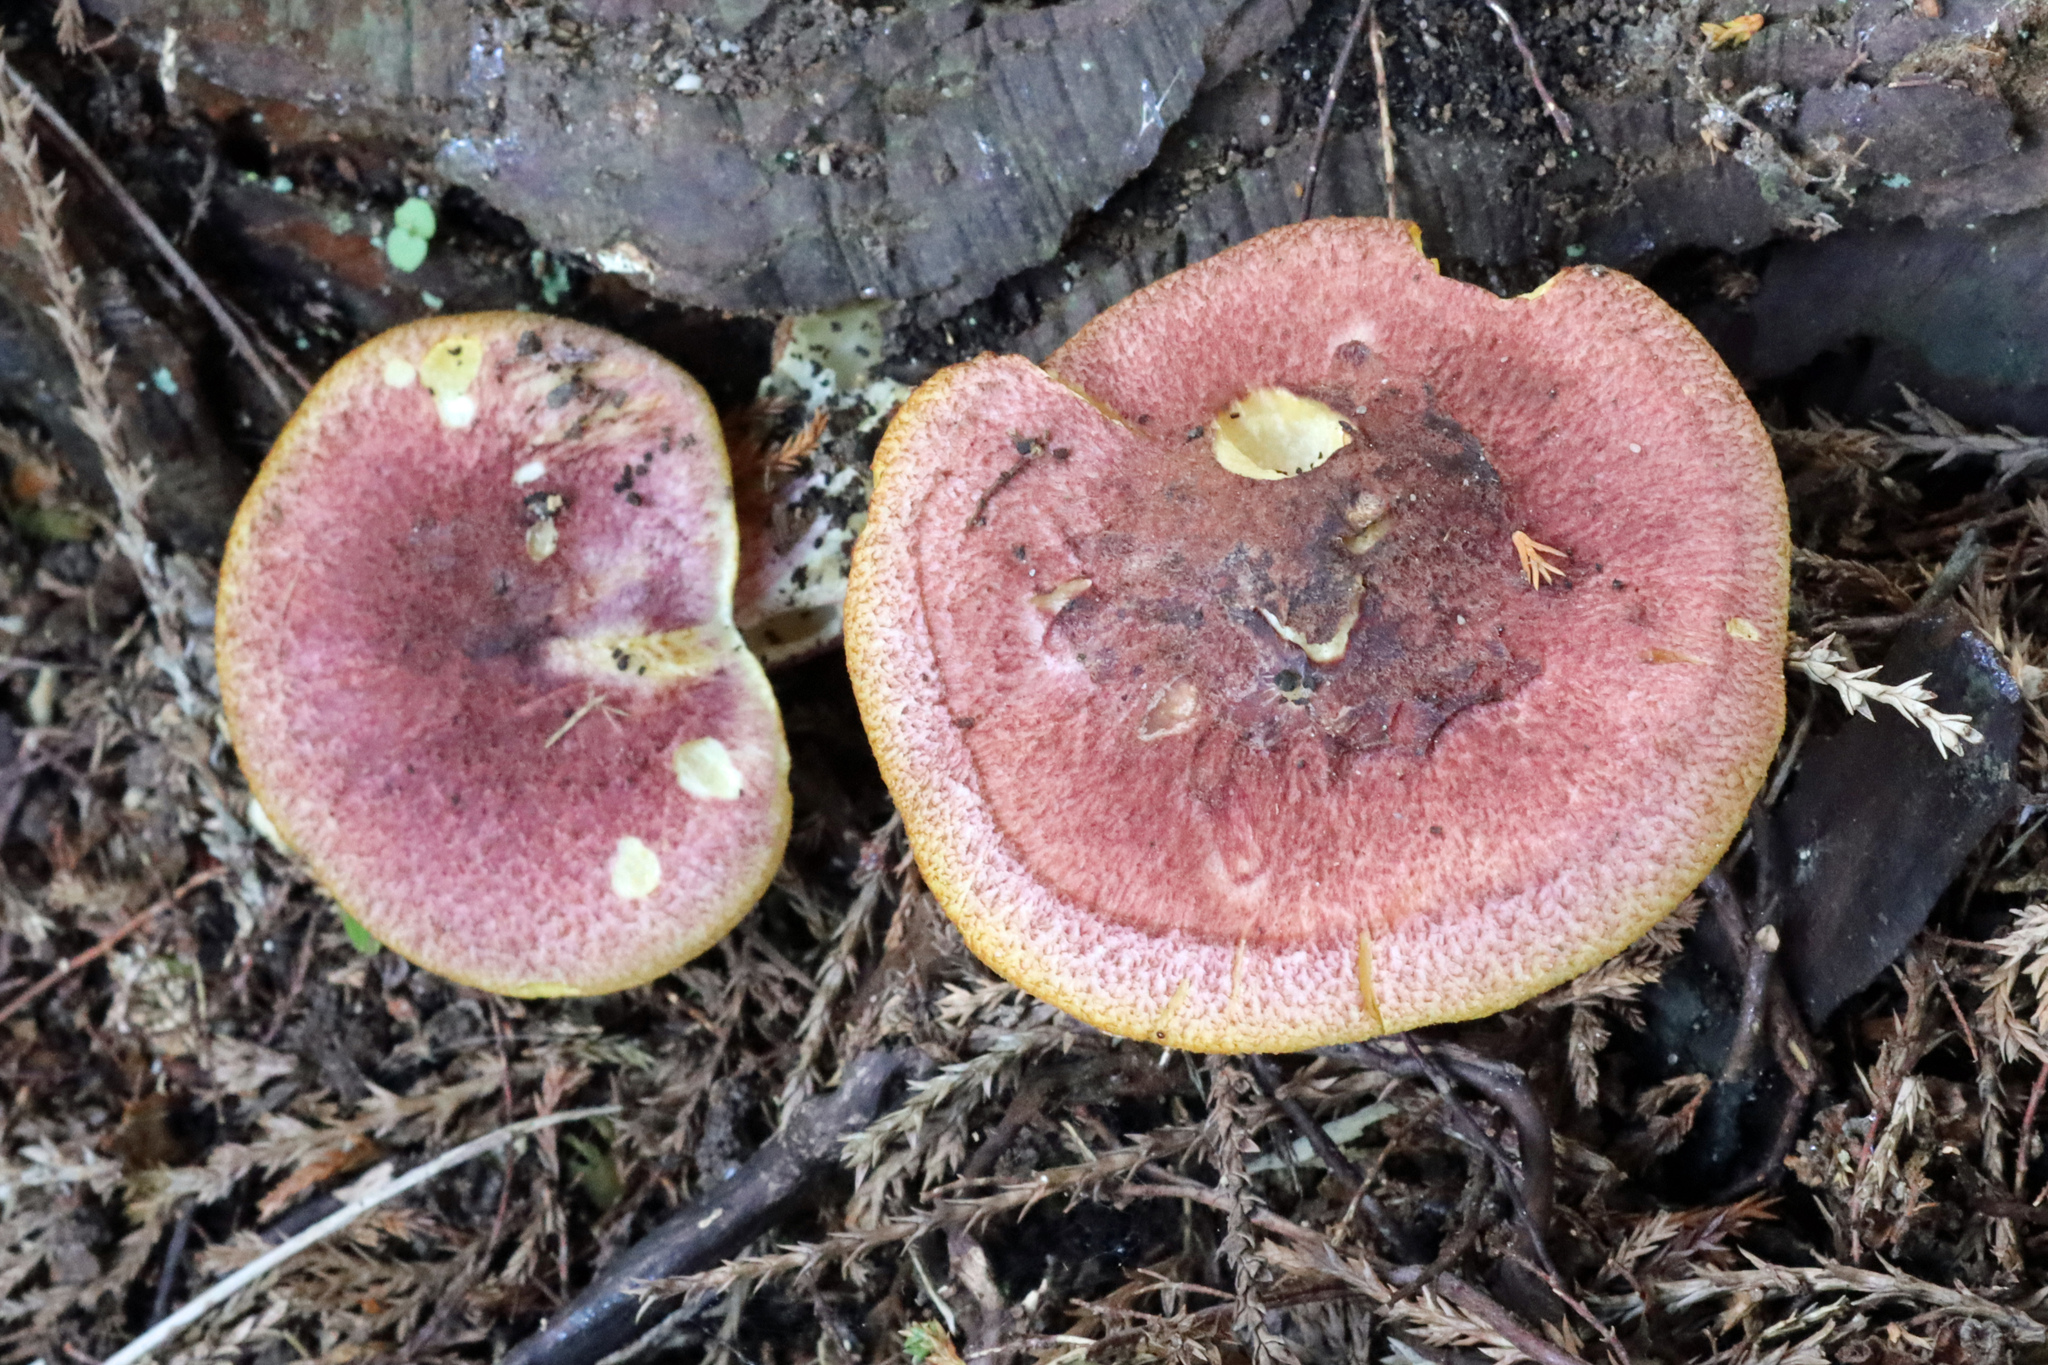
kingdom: Fungi
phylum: Basidiomycota
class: Agaricomycetes
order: Agaricales
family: Tricholomataceae
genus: Tricholomopsis
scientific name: Tricholomopsis rutilans
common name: Plums and custard
